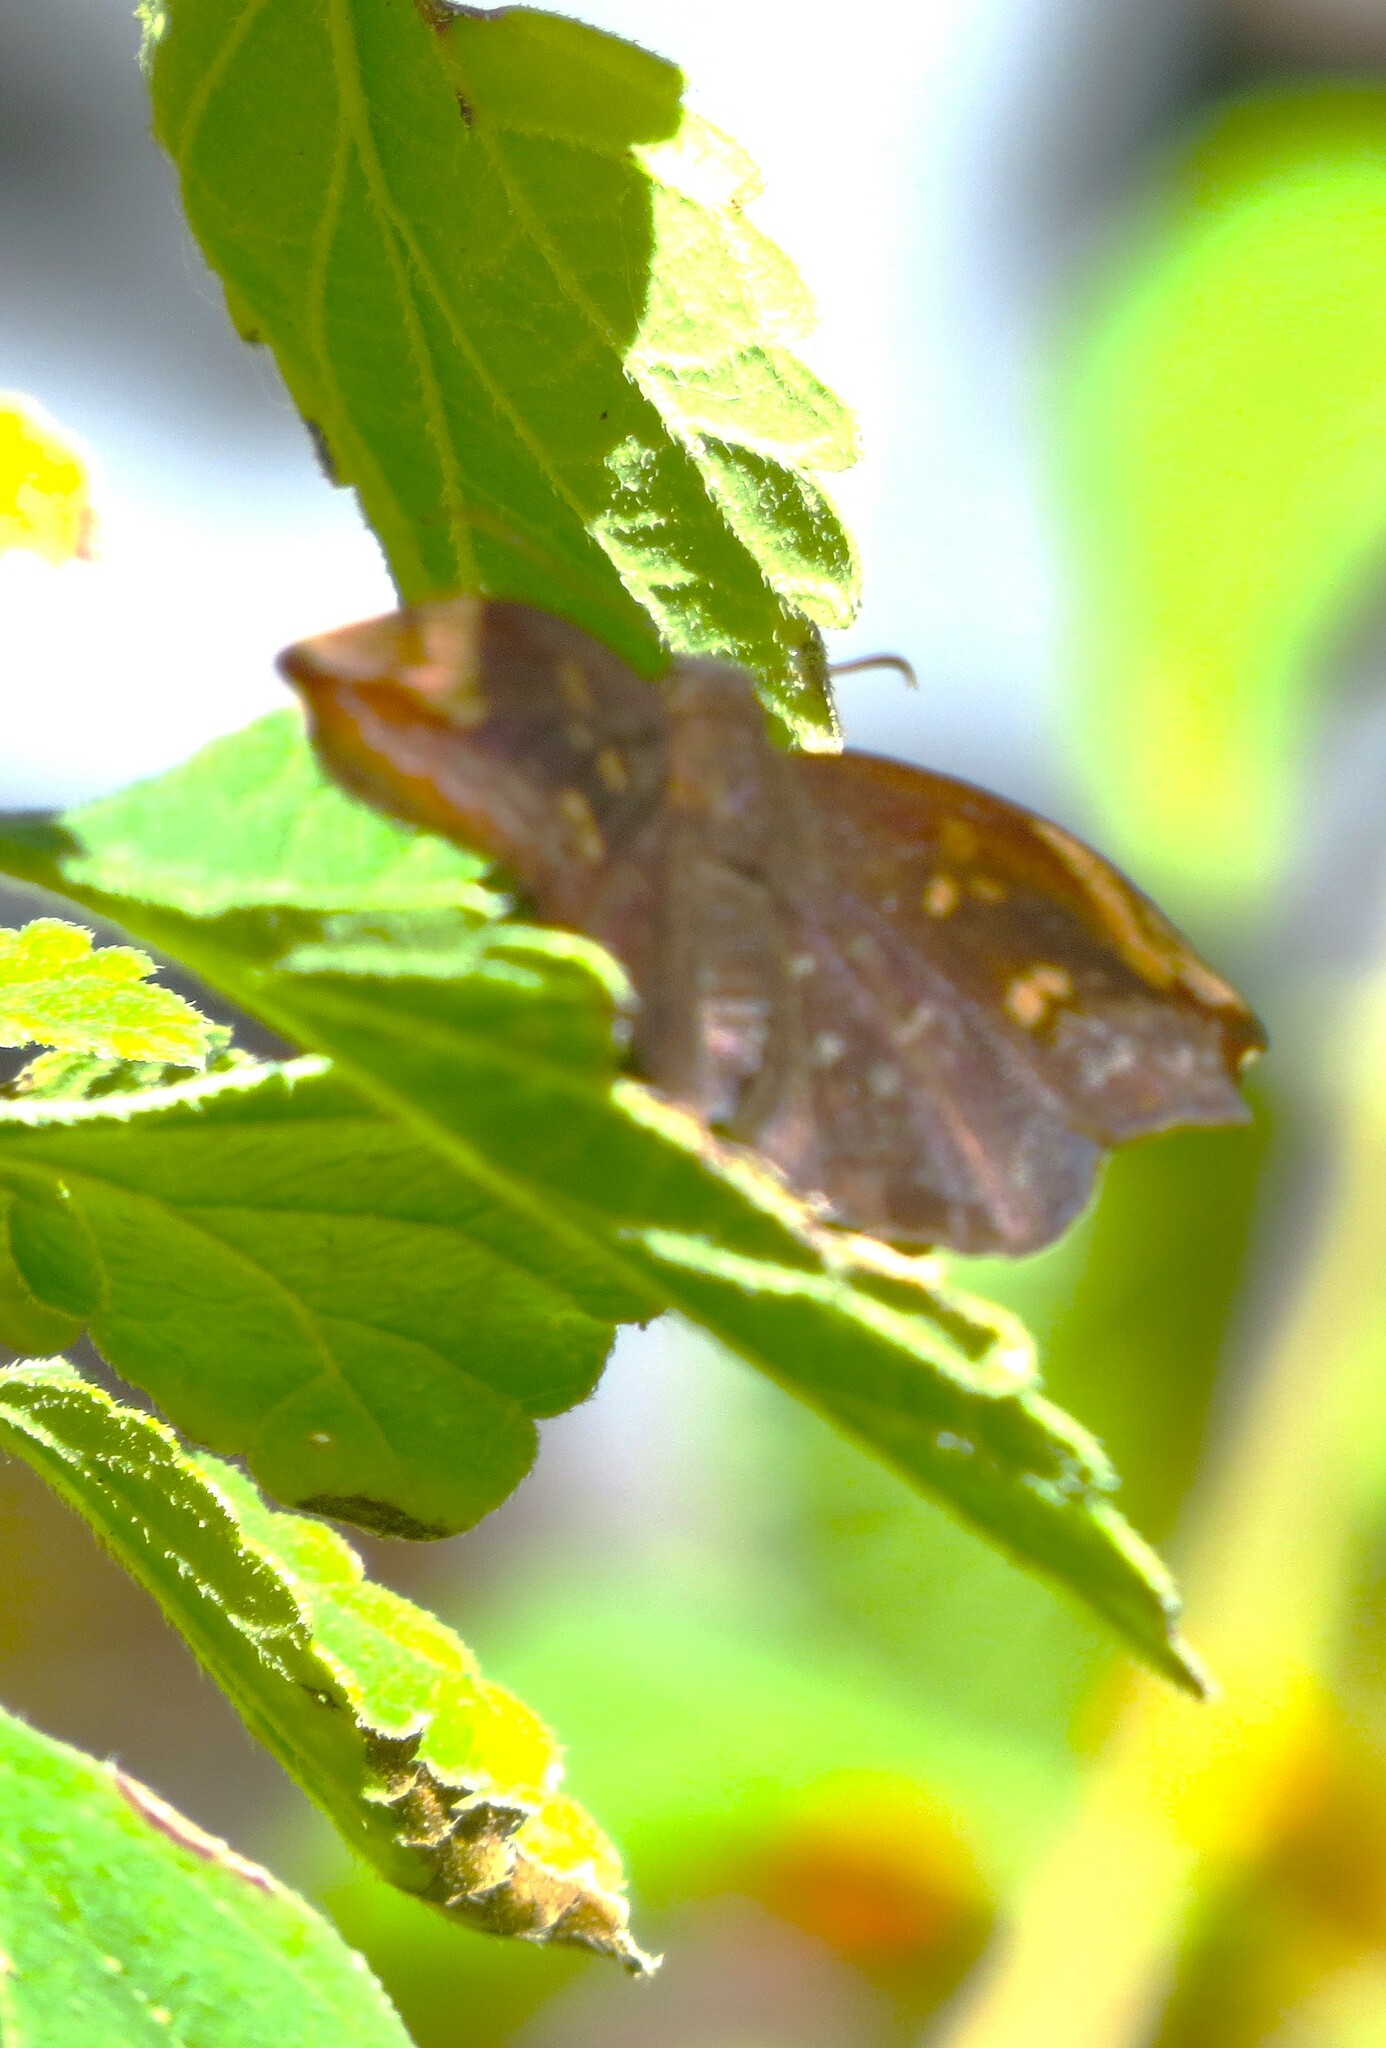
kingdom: Animalia
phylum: Arthropoda
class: Insecta
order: Lepidoptera
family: Hesperiidae
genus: Achlyodes
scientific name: Achlyodes thraso
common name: Sickle-winged skipper
